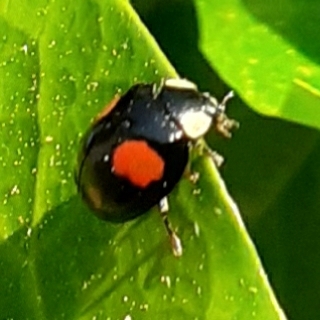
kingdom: Animalia
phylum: Arthropoda
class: Insecta
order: Coleoptera
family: Coccinellidae
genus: Harmonia
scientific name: Harmonia axyridis
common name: Harlequin ladybird
